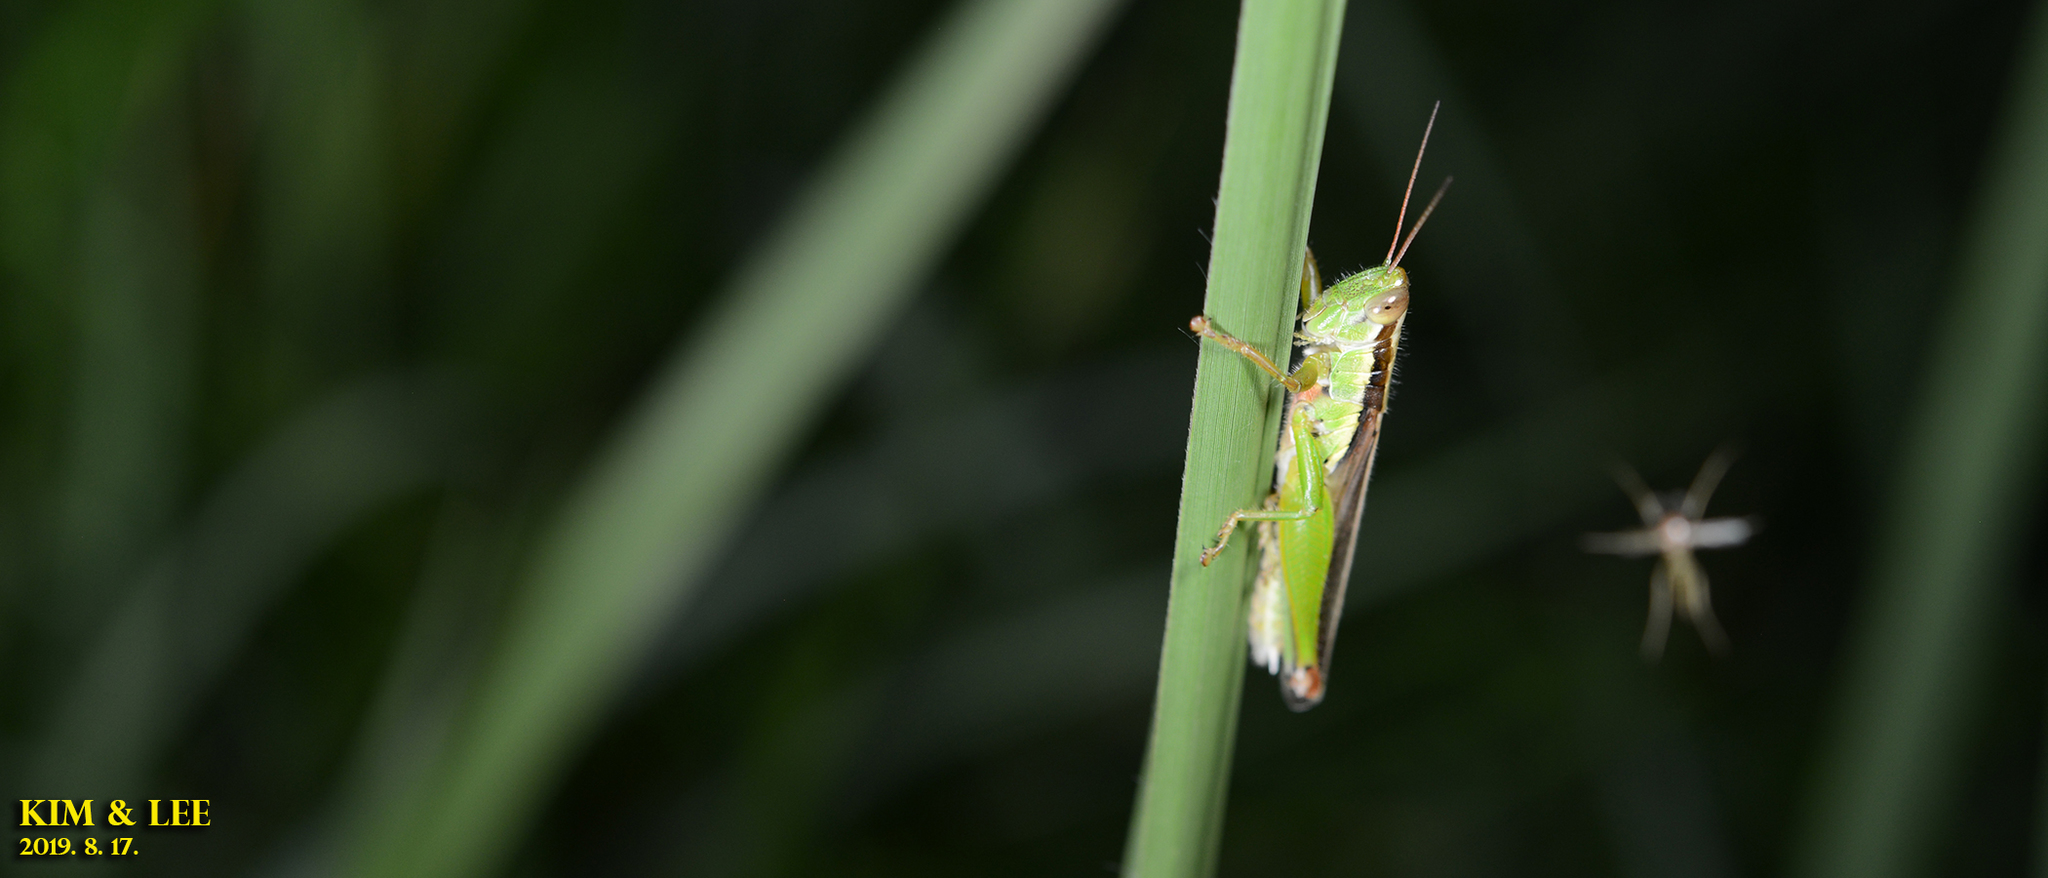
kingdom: Animalia
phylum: Arthropoda
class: Insecta
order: Orthoptera
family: Acrididae
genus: Oxya
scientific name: Oxya sinuosa
